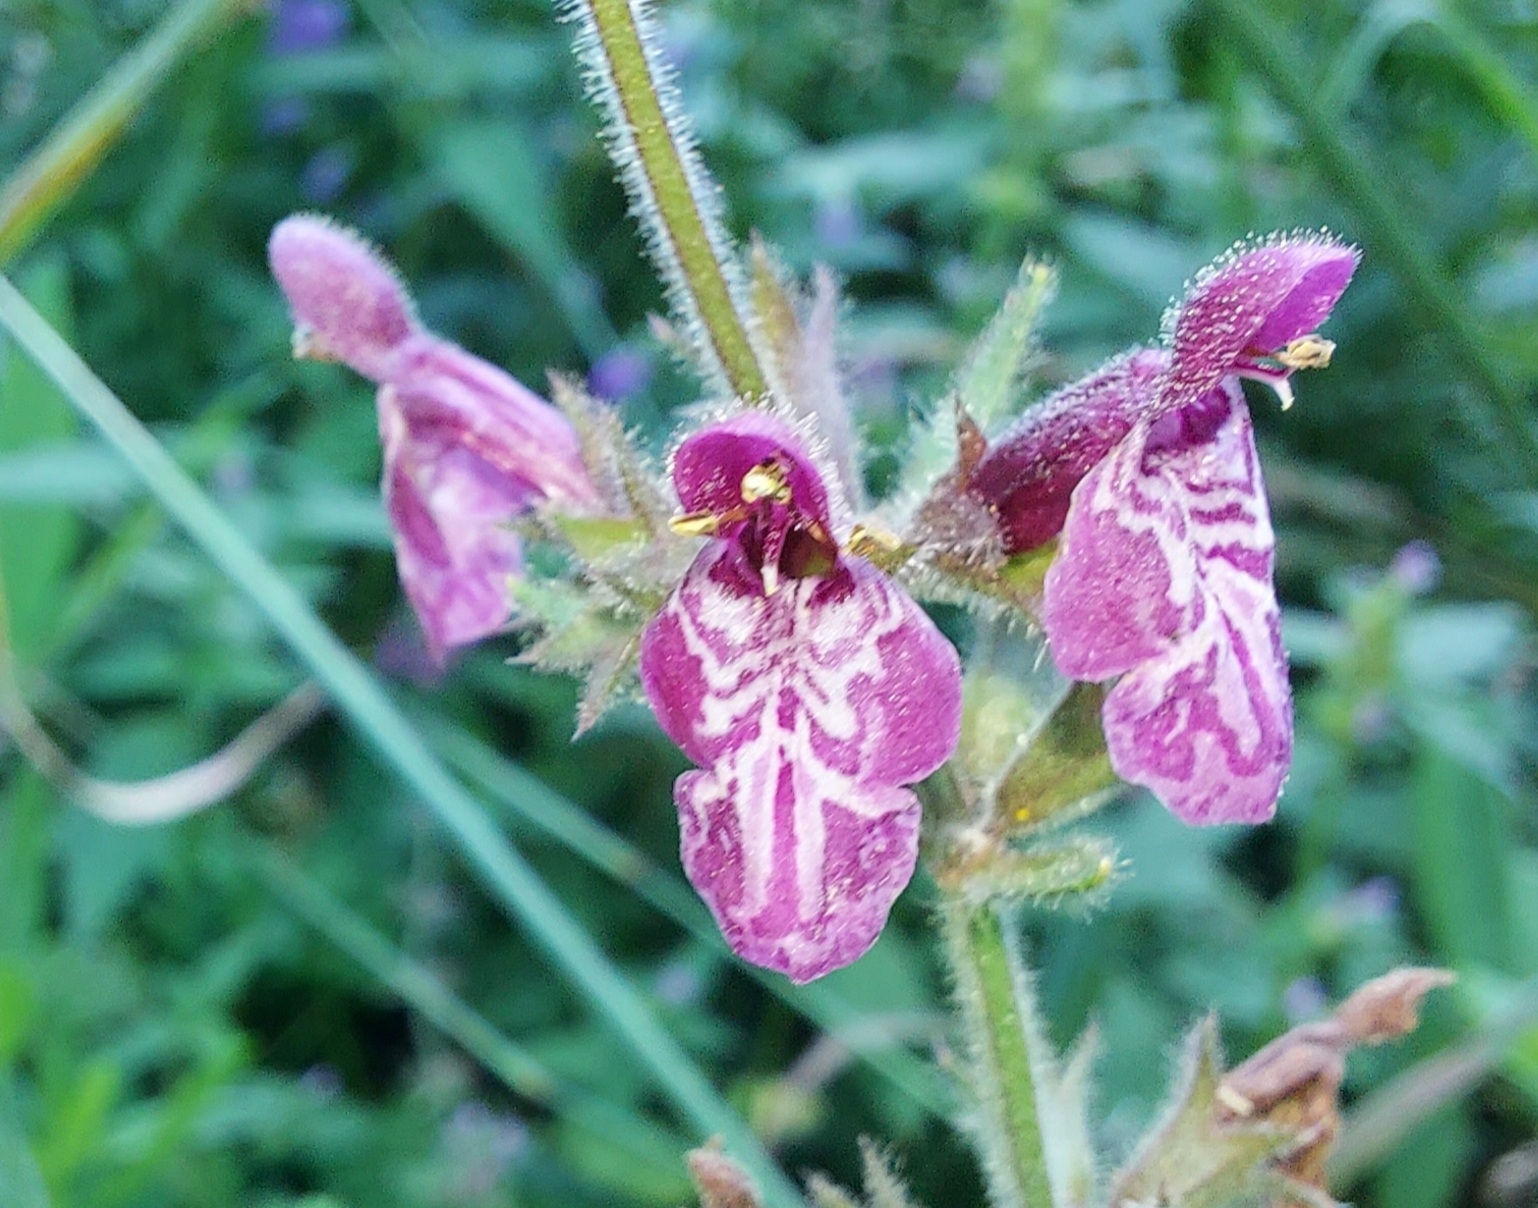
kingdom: Plantae
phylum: Tracheophyta
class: Magnoliopsida
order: Lamiales
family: Lamiaceae
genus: Stachys
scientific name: Stachys sylvatica
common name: Hedge woundwort
